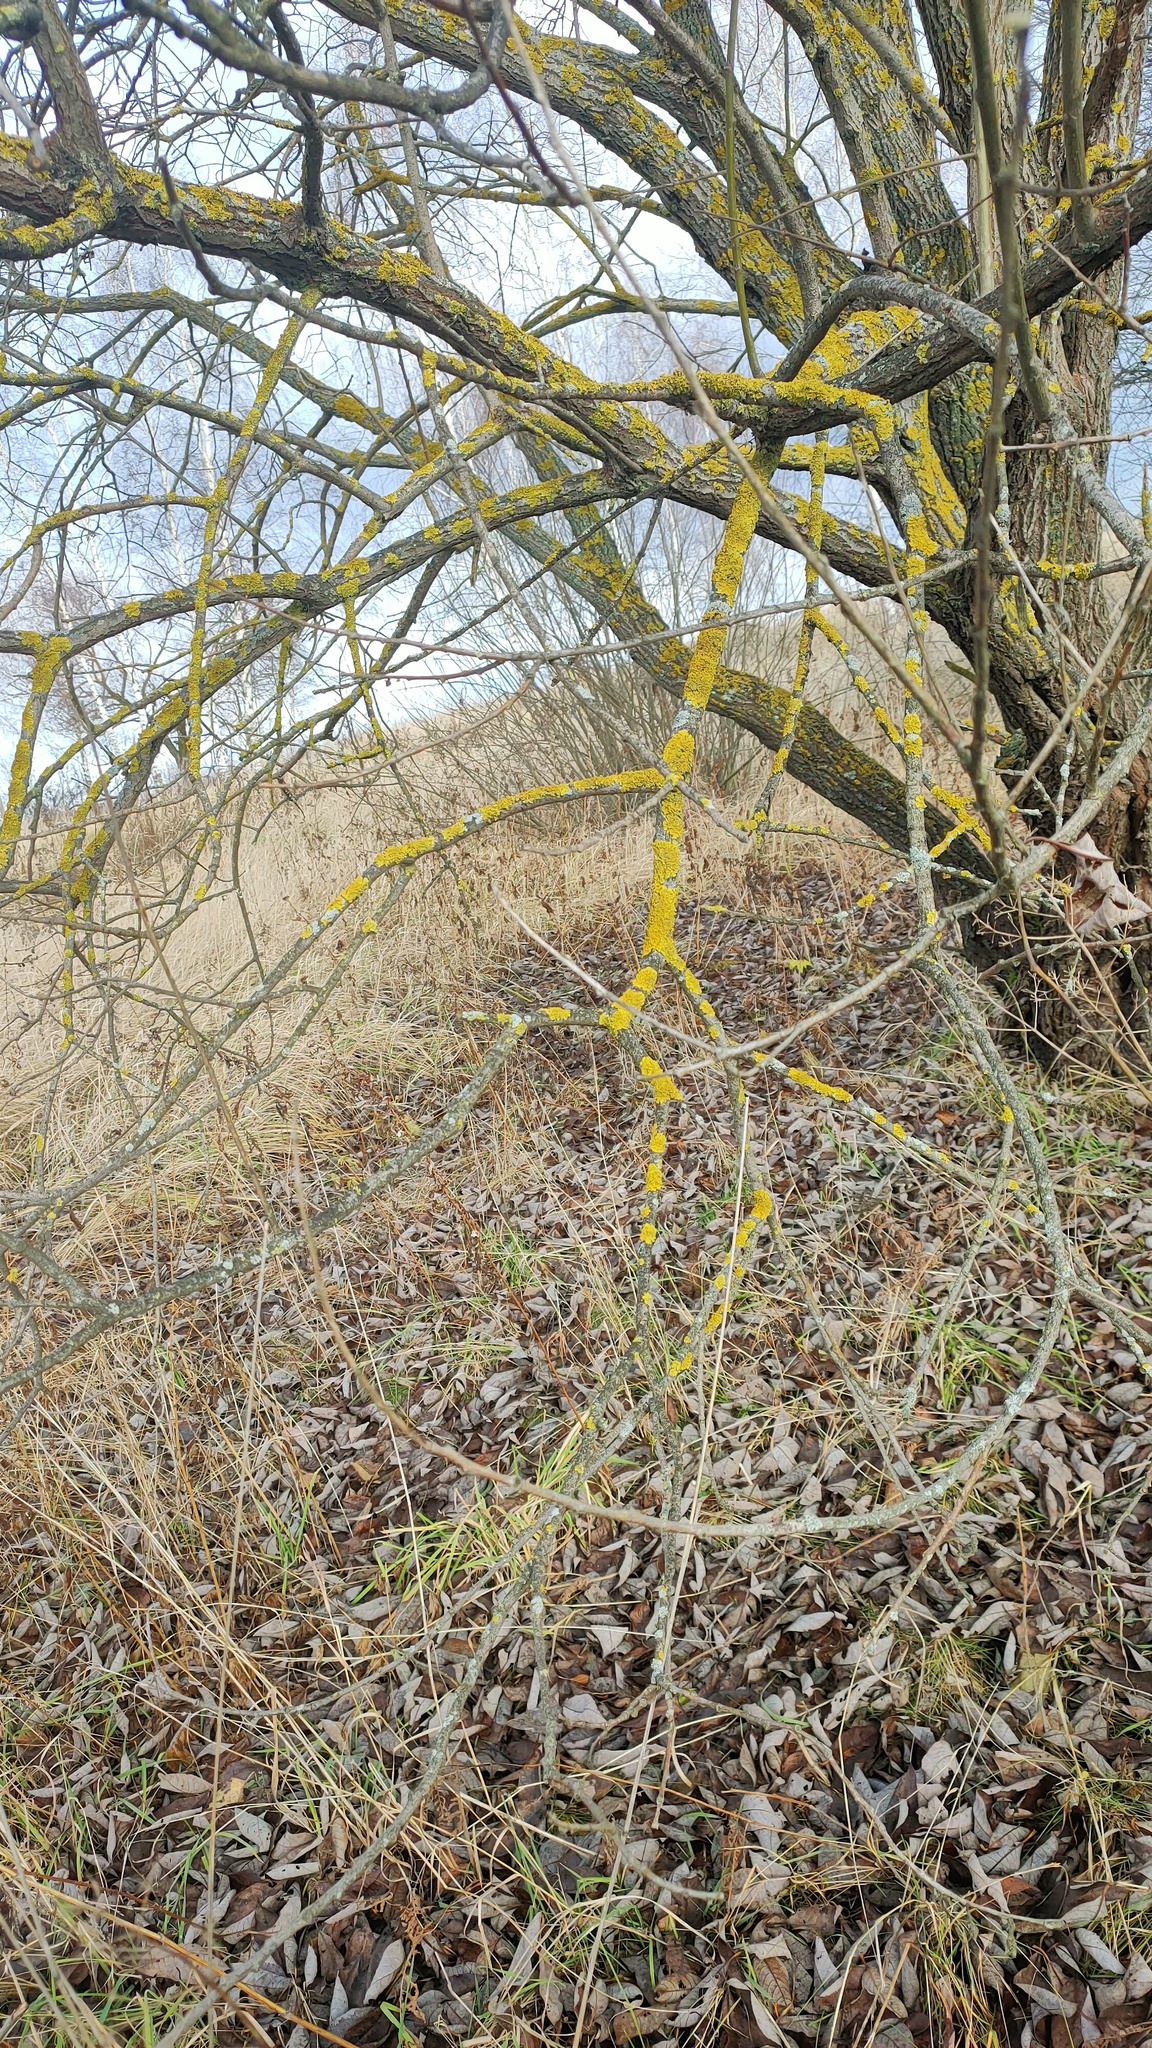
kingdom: Plantae
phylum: Tracheophyta
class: Magnoliopsida
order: Malpighiales
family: Salicaceae
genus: Salix
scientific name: Salix caprea
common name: Goat willow
